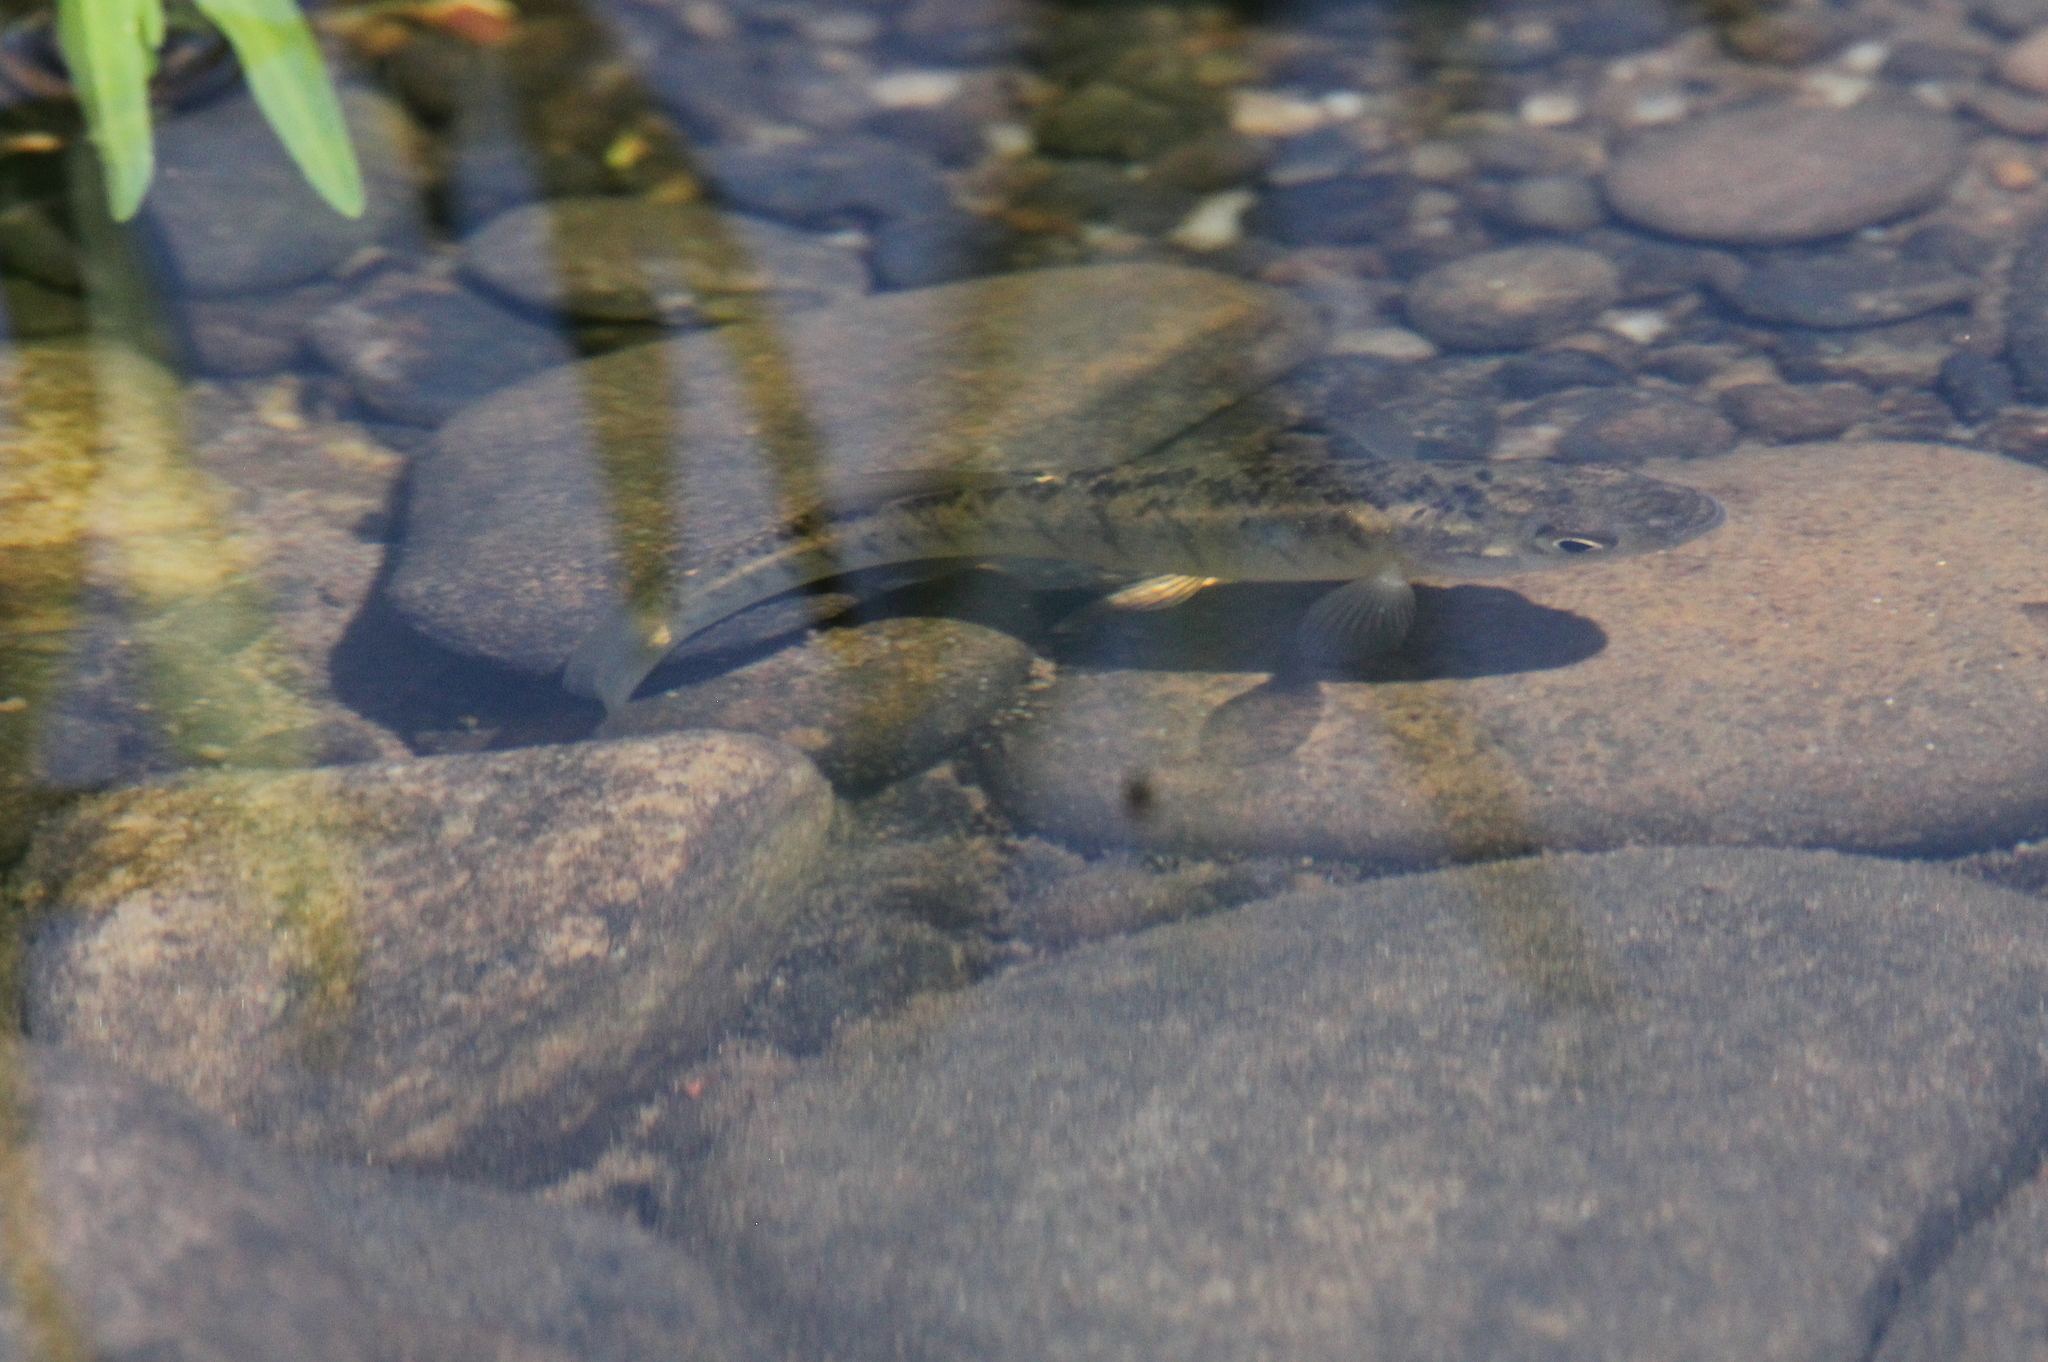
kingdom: Animalia
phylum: Chordata
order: Cyprinodontiformes
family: Fundulidae
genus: Fundulus
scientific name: Fundulus diaphanus
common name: Banded killifish
